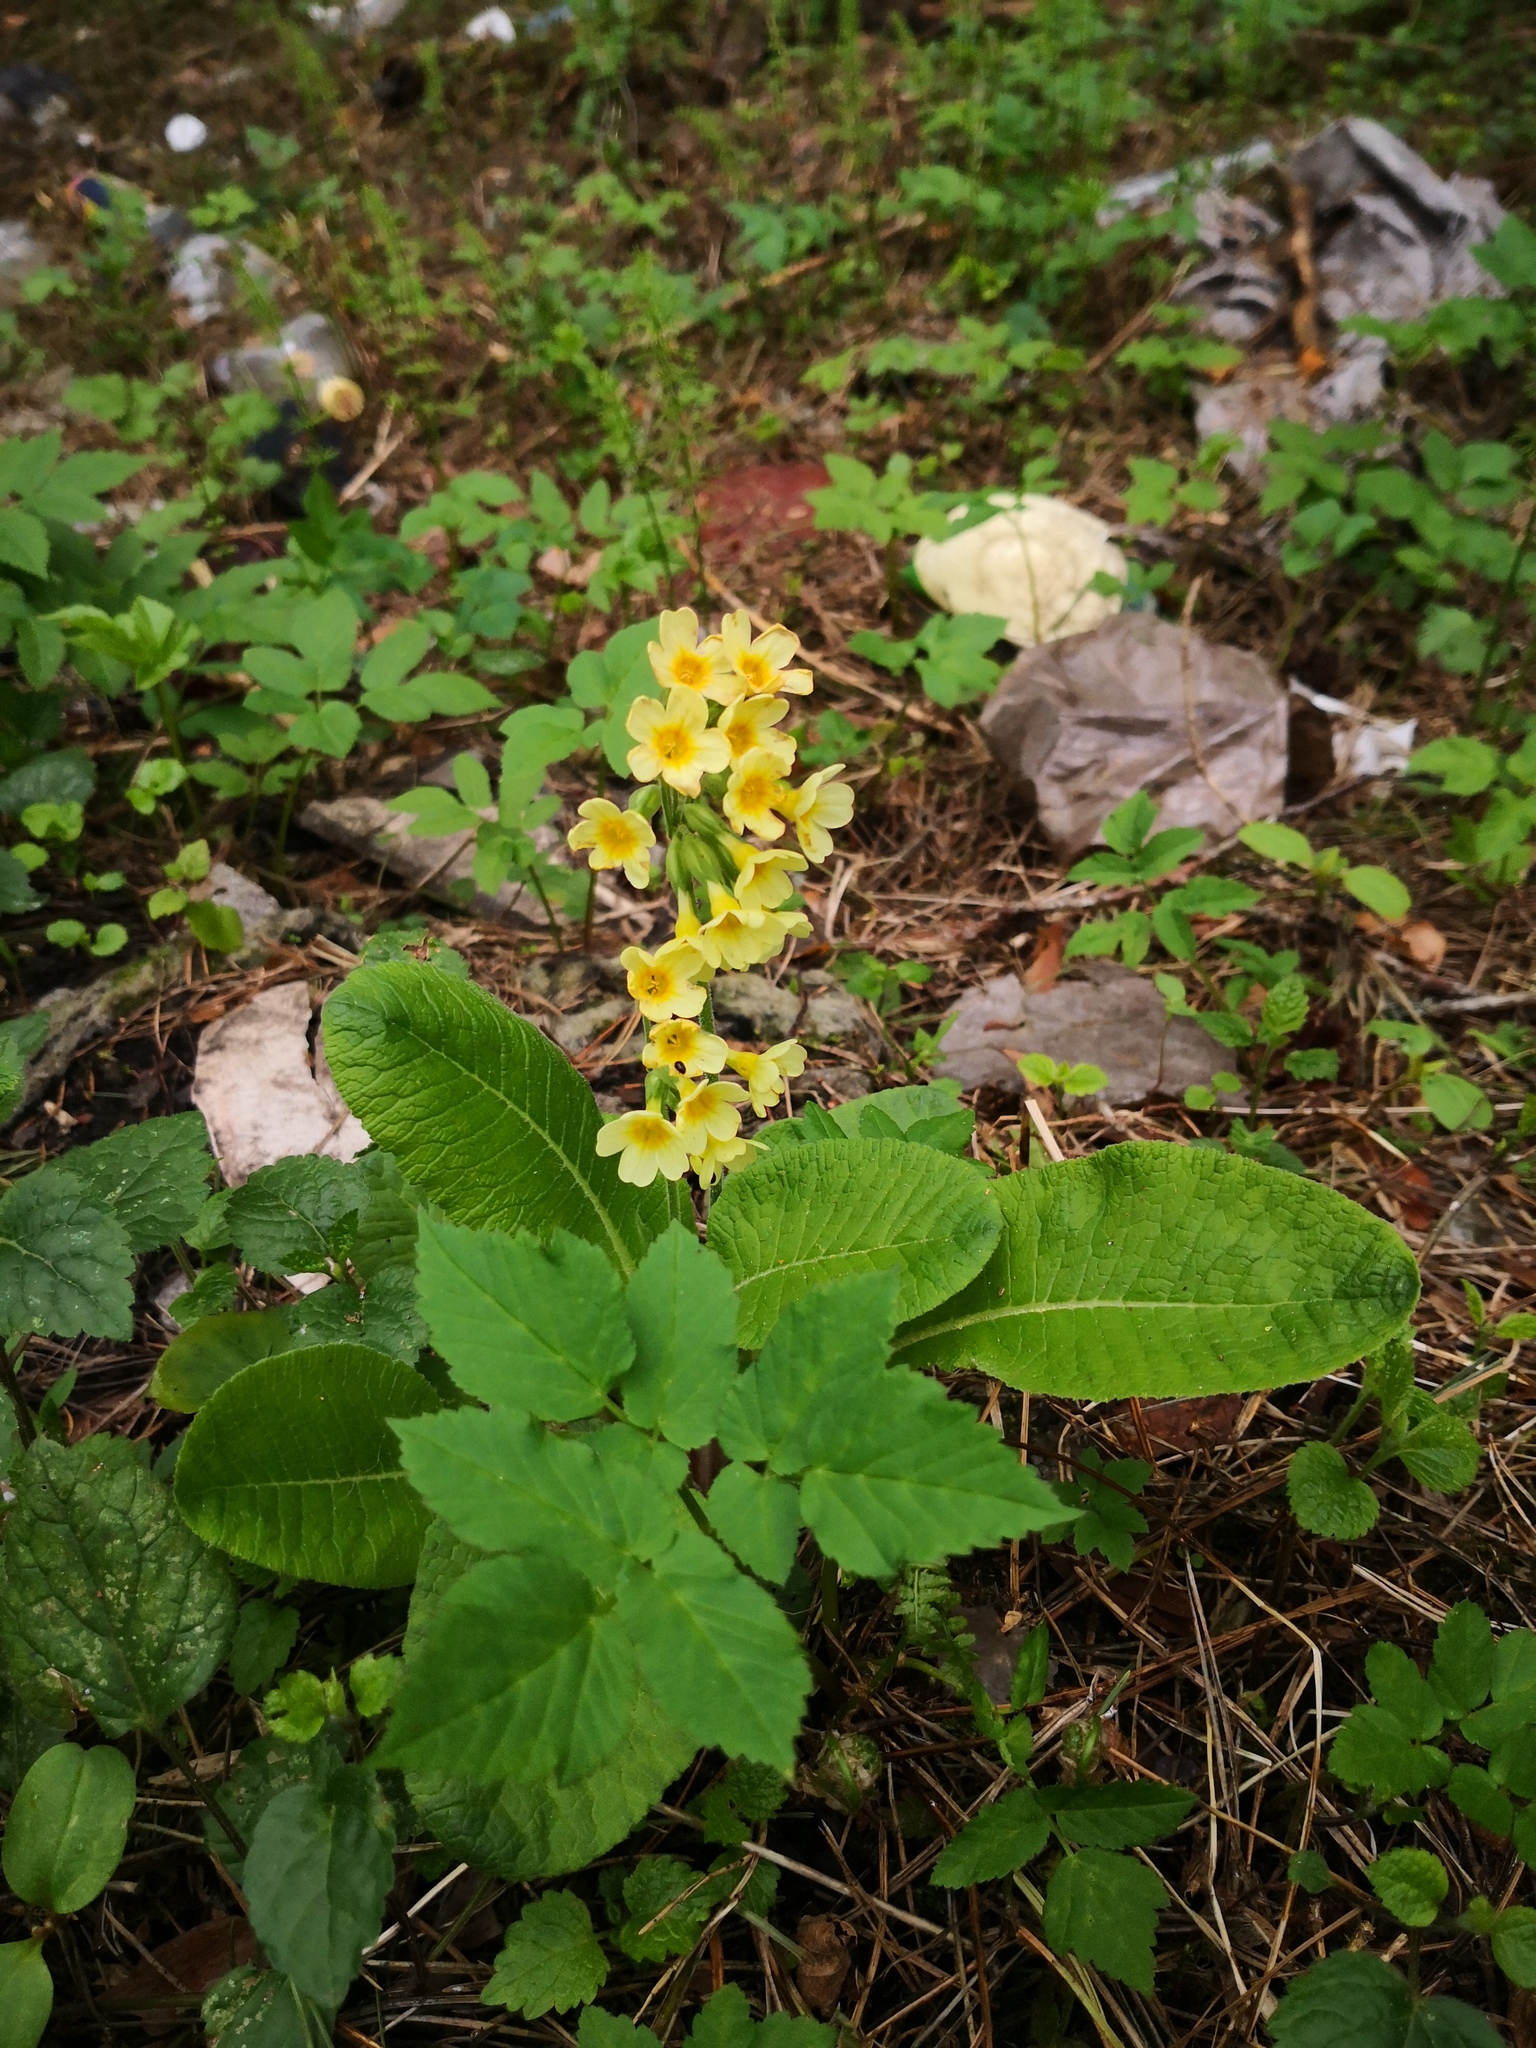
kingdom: Plantae
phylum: Tracheophyta
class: Magnoliopsida
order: Ericales
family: Primulaceae
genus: Primula
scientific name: Primula elatior
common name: Oxlip
